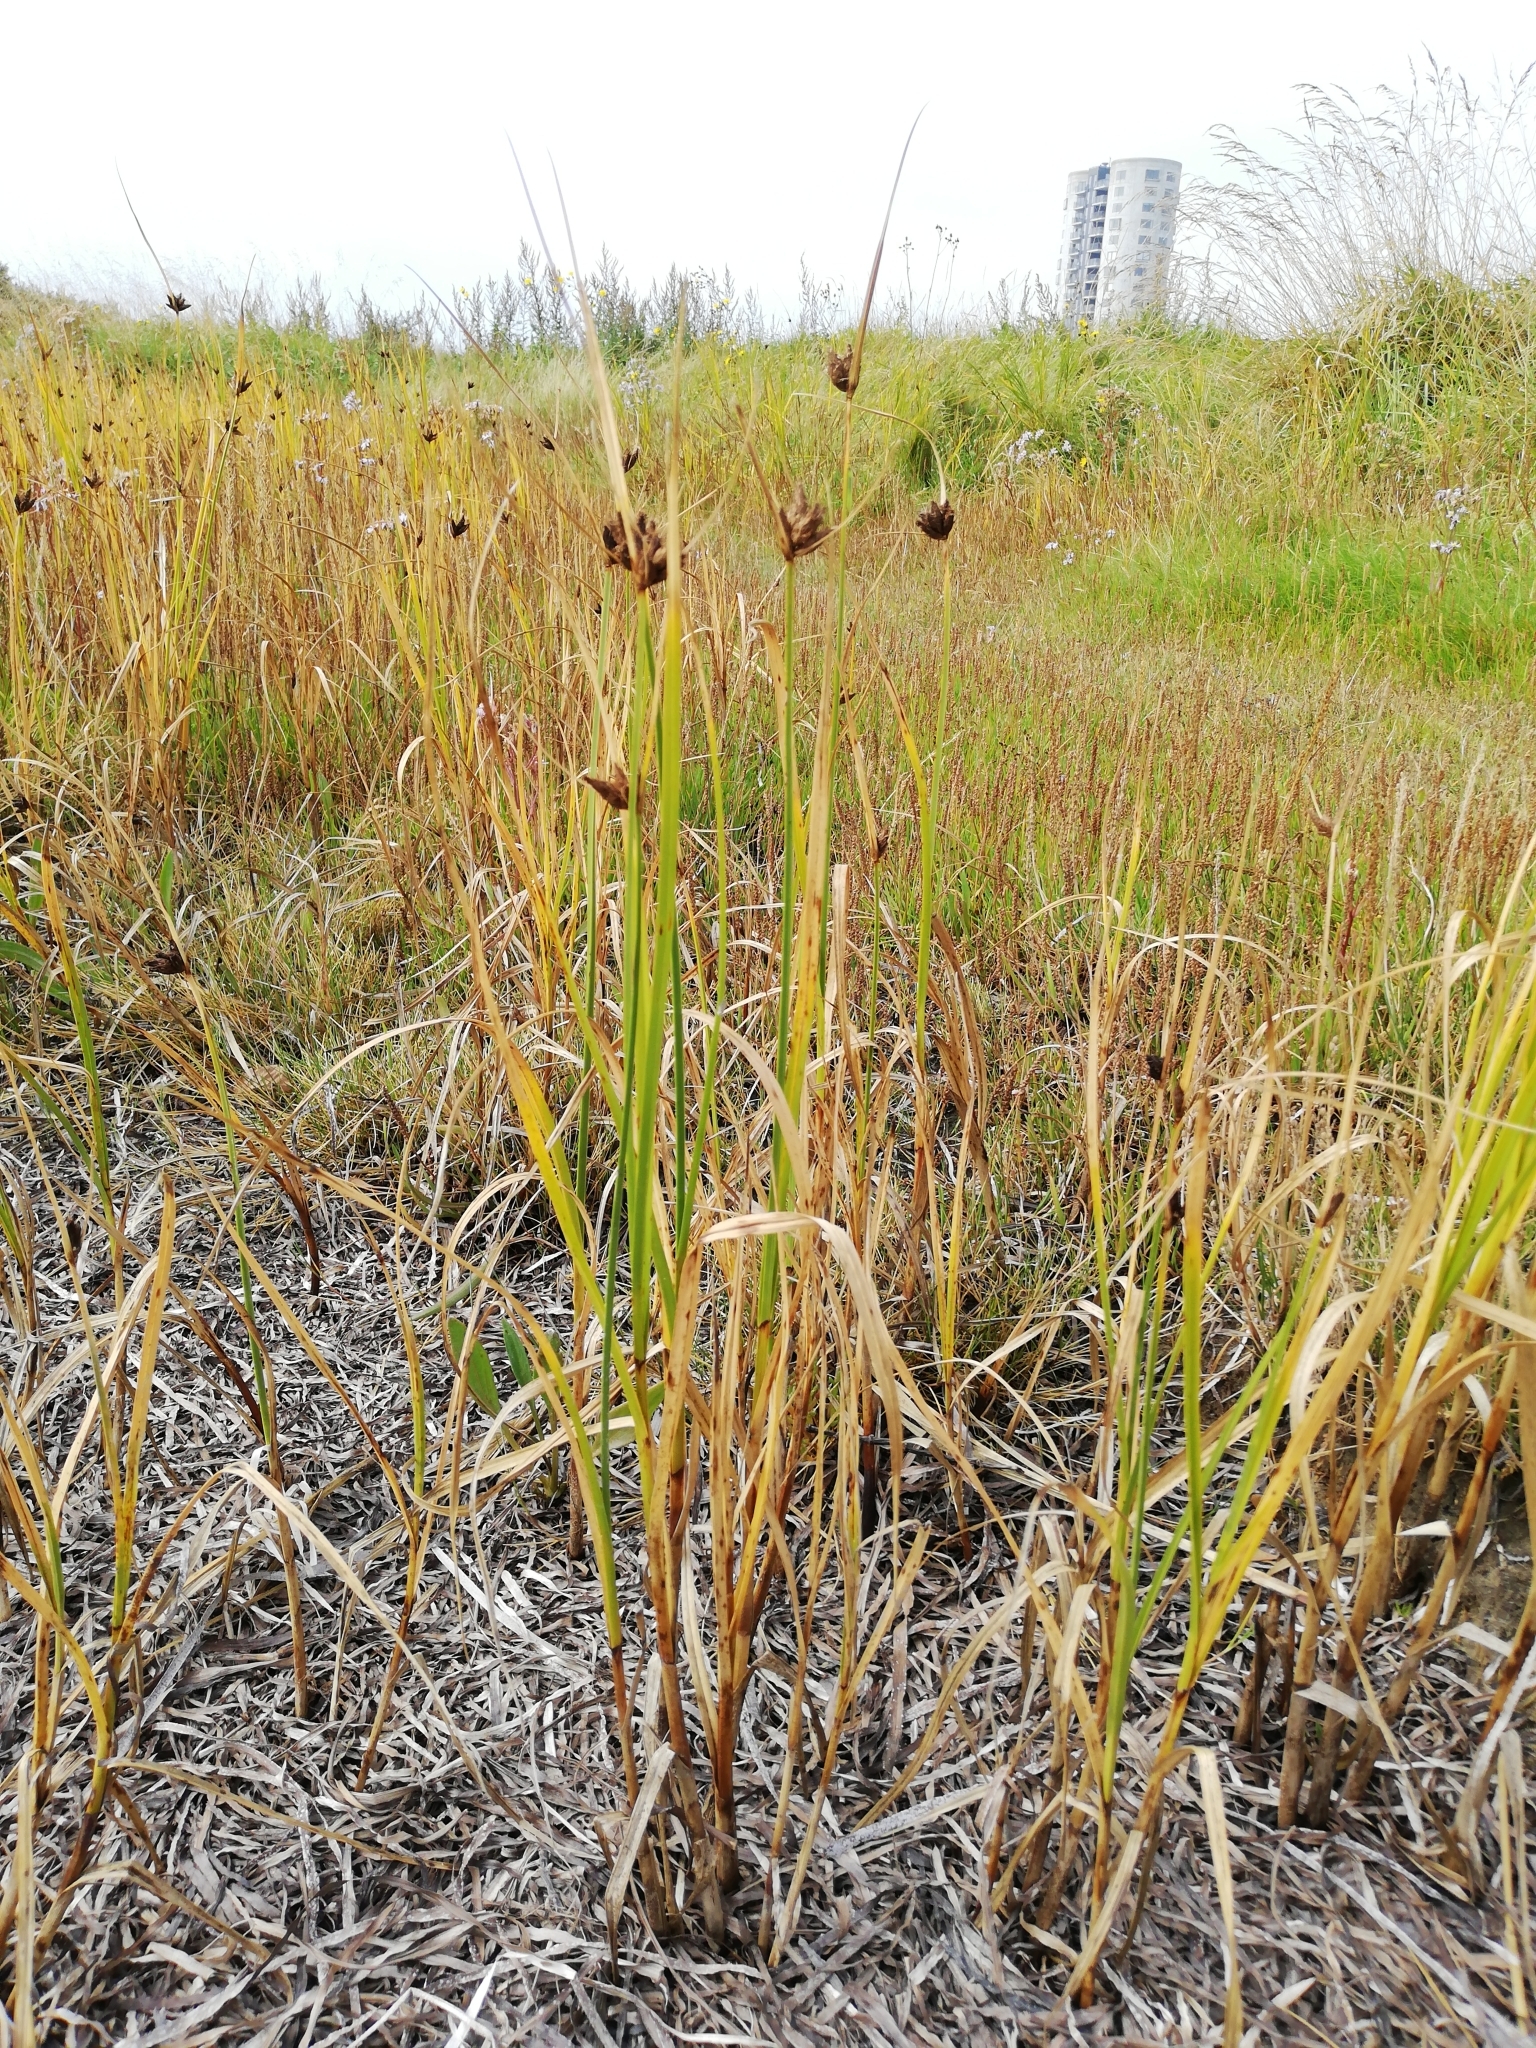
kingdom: Plantae
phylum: Tracheophyta
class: Liliopsida
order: Poales
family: Cyperaceae
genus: Bolboschoenus
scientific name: Bolboschoenus maritimus
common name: Sea club-rush
